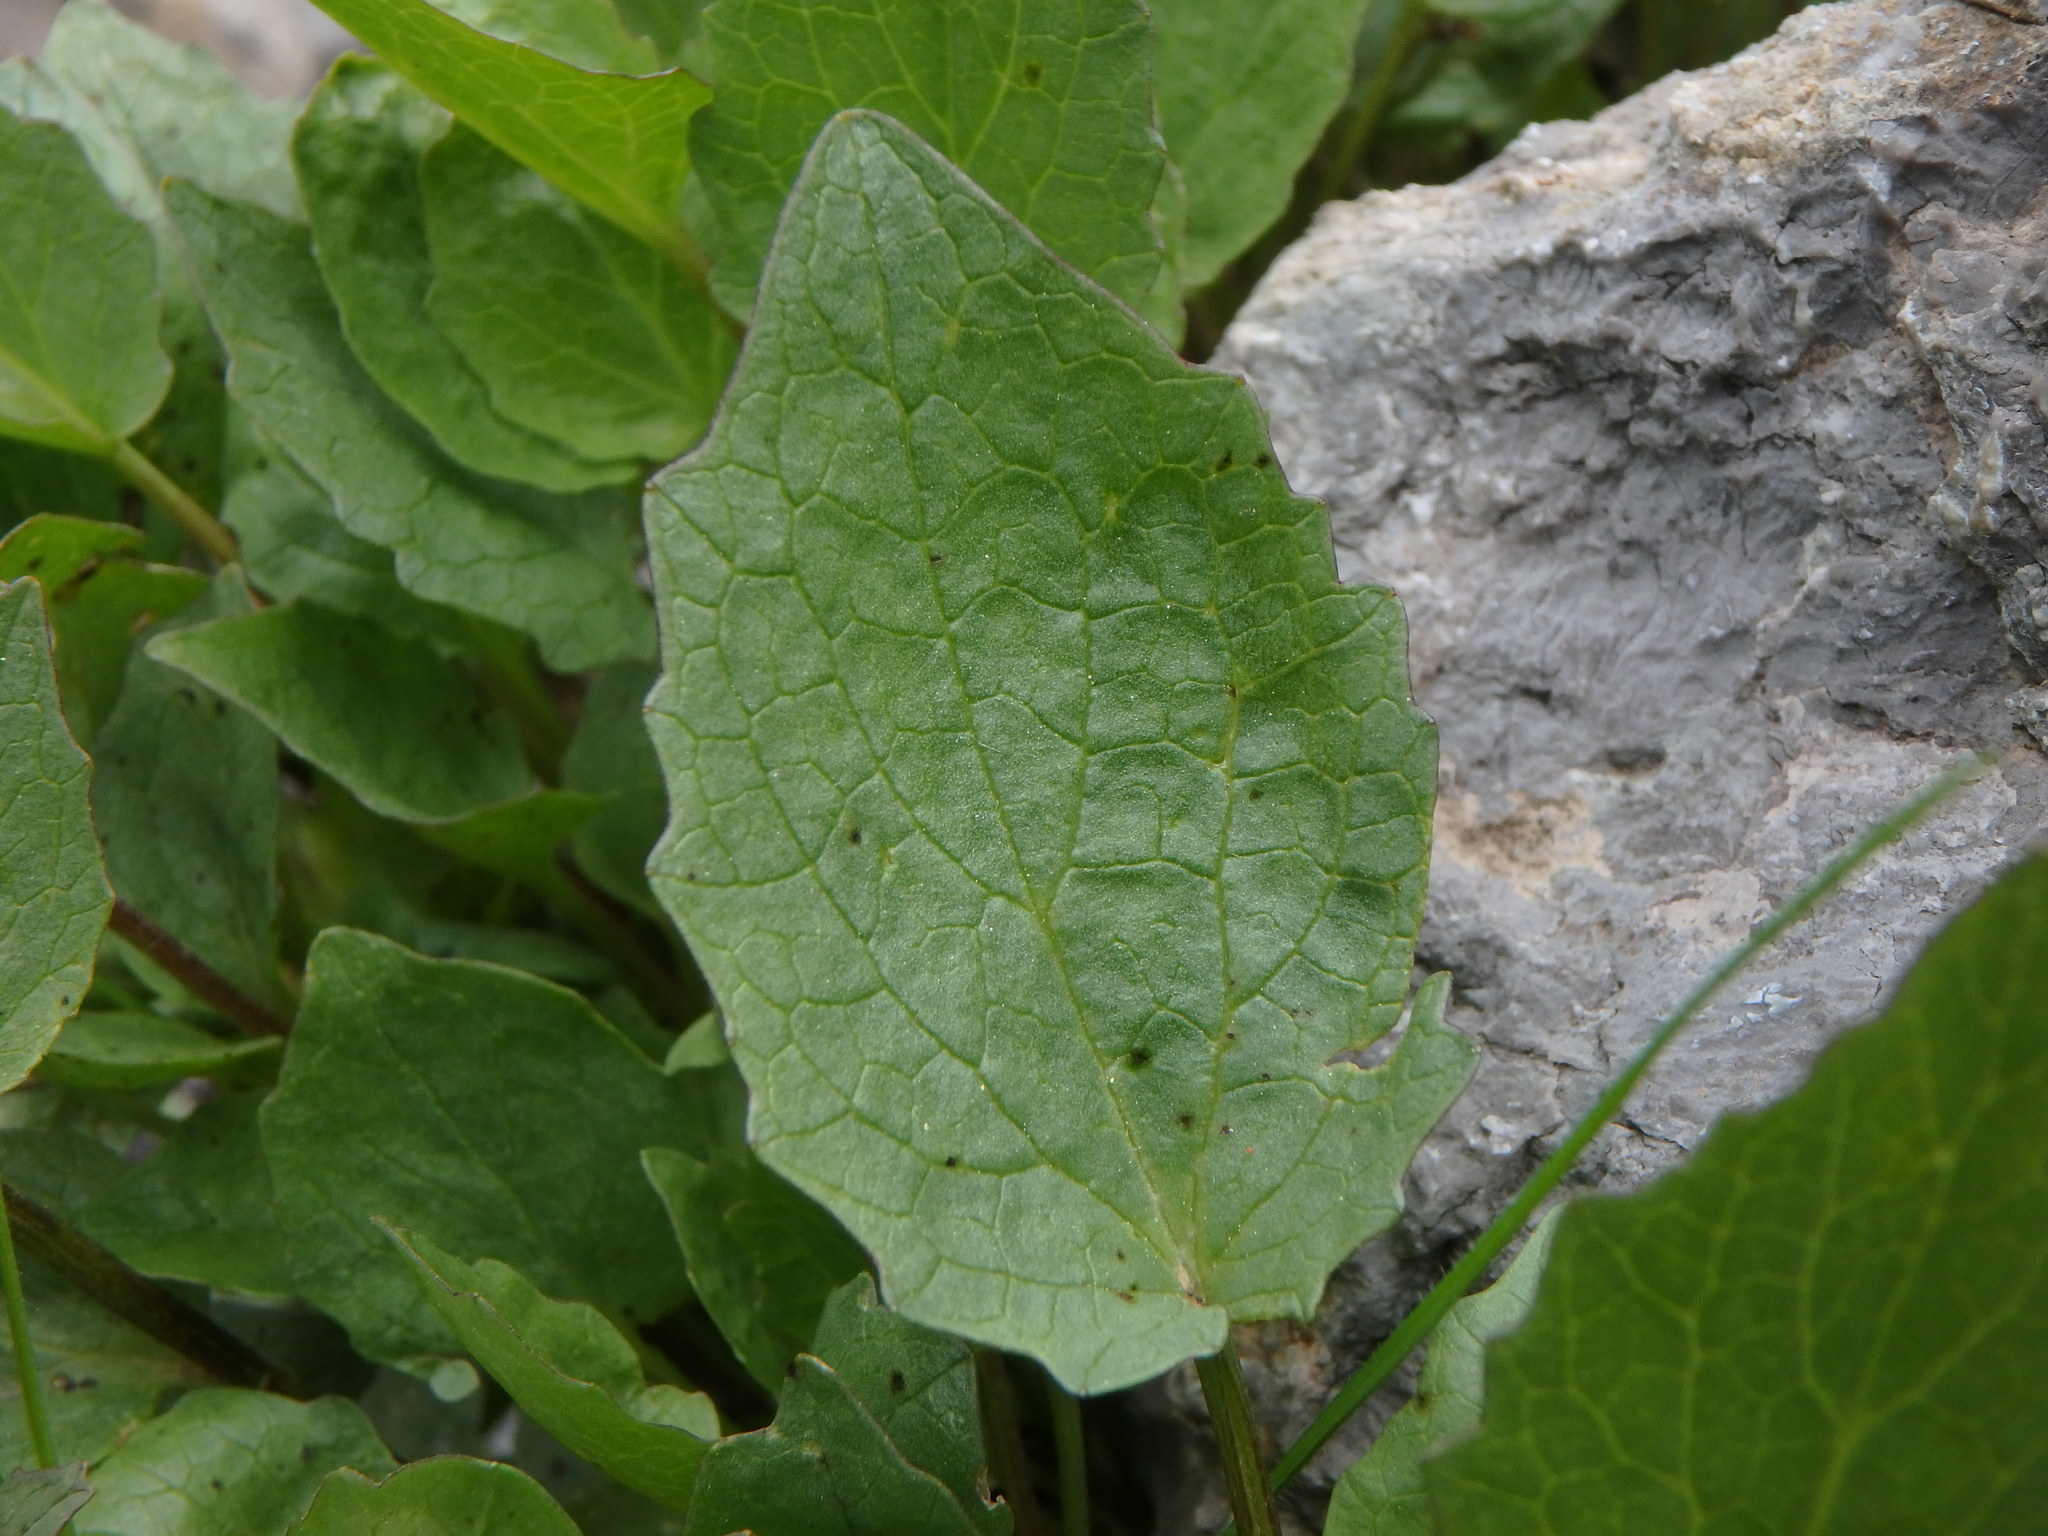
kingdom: Plantae
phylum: Tracheophyta
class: Magnoliopsida
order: Dipsacales
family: Caprifoliaceae
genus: Valeriana
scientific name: Valeriana montana
